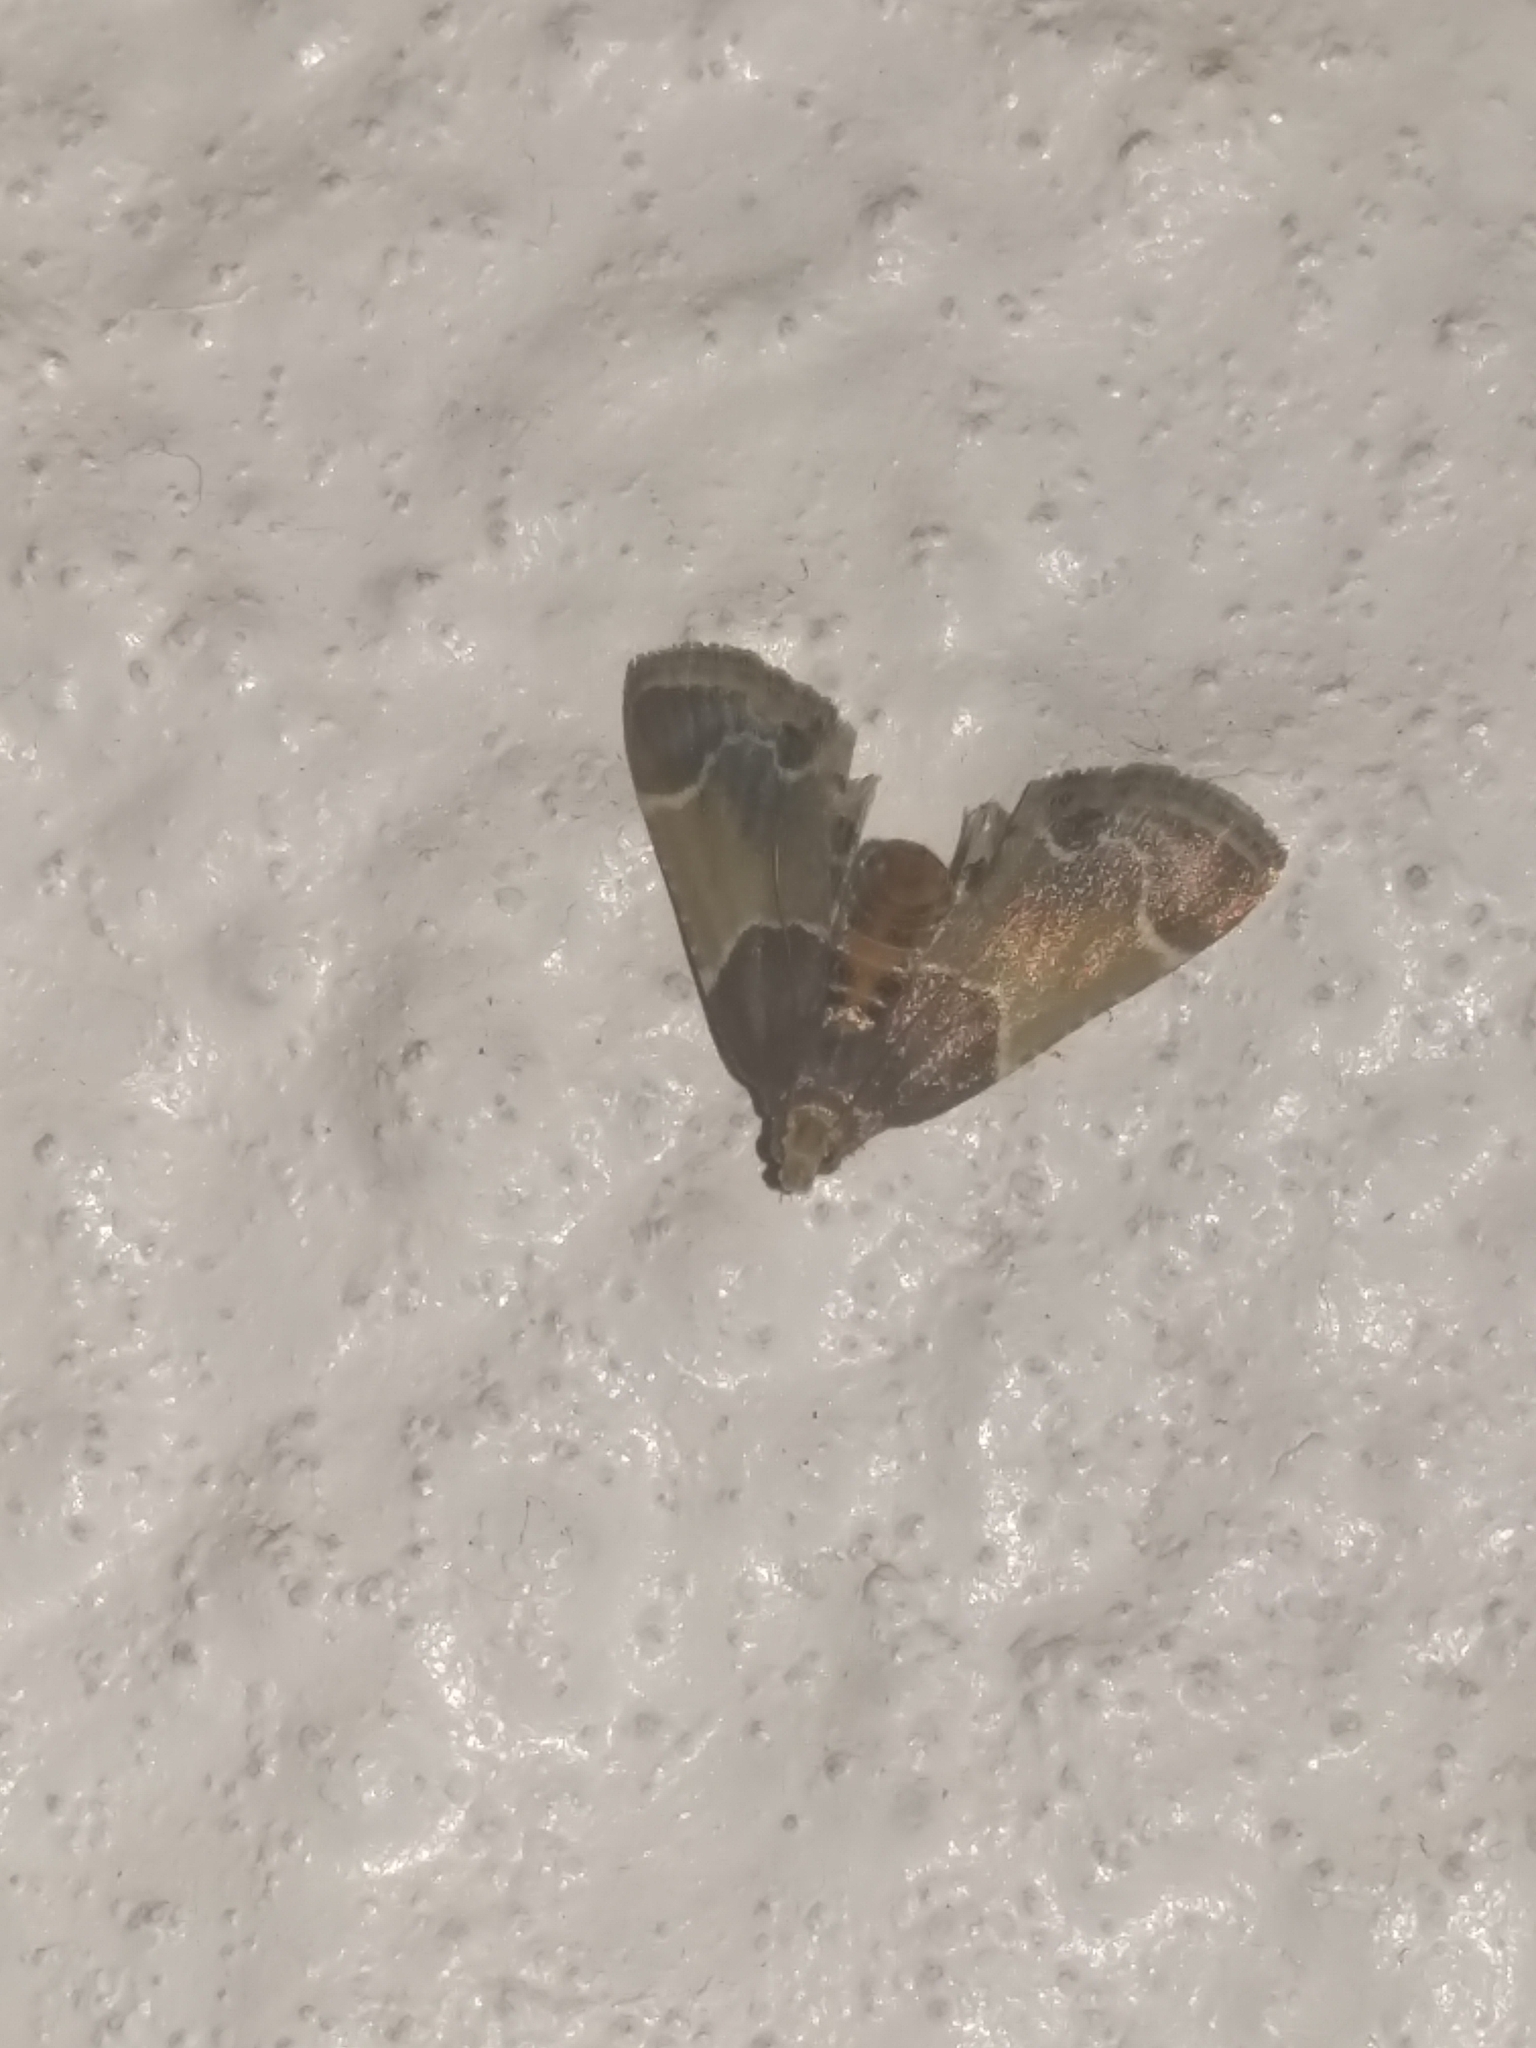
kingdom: Animalia
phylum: Arthropoda
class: Insecta
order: Lepidoptera
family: Pyralidae
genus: Pyralis
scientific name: Pyralis farinalis
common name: Meal moth
